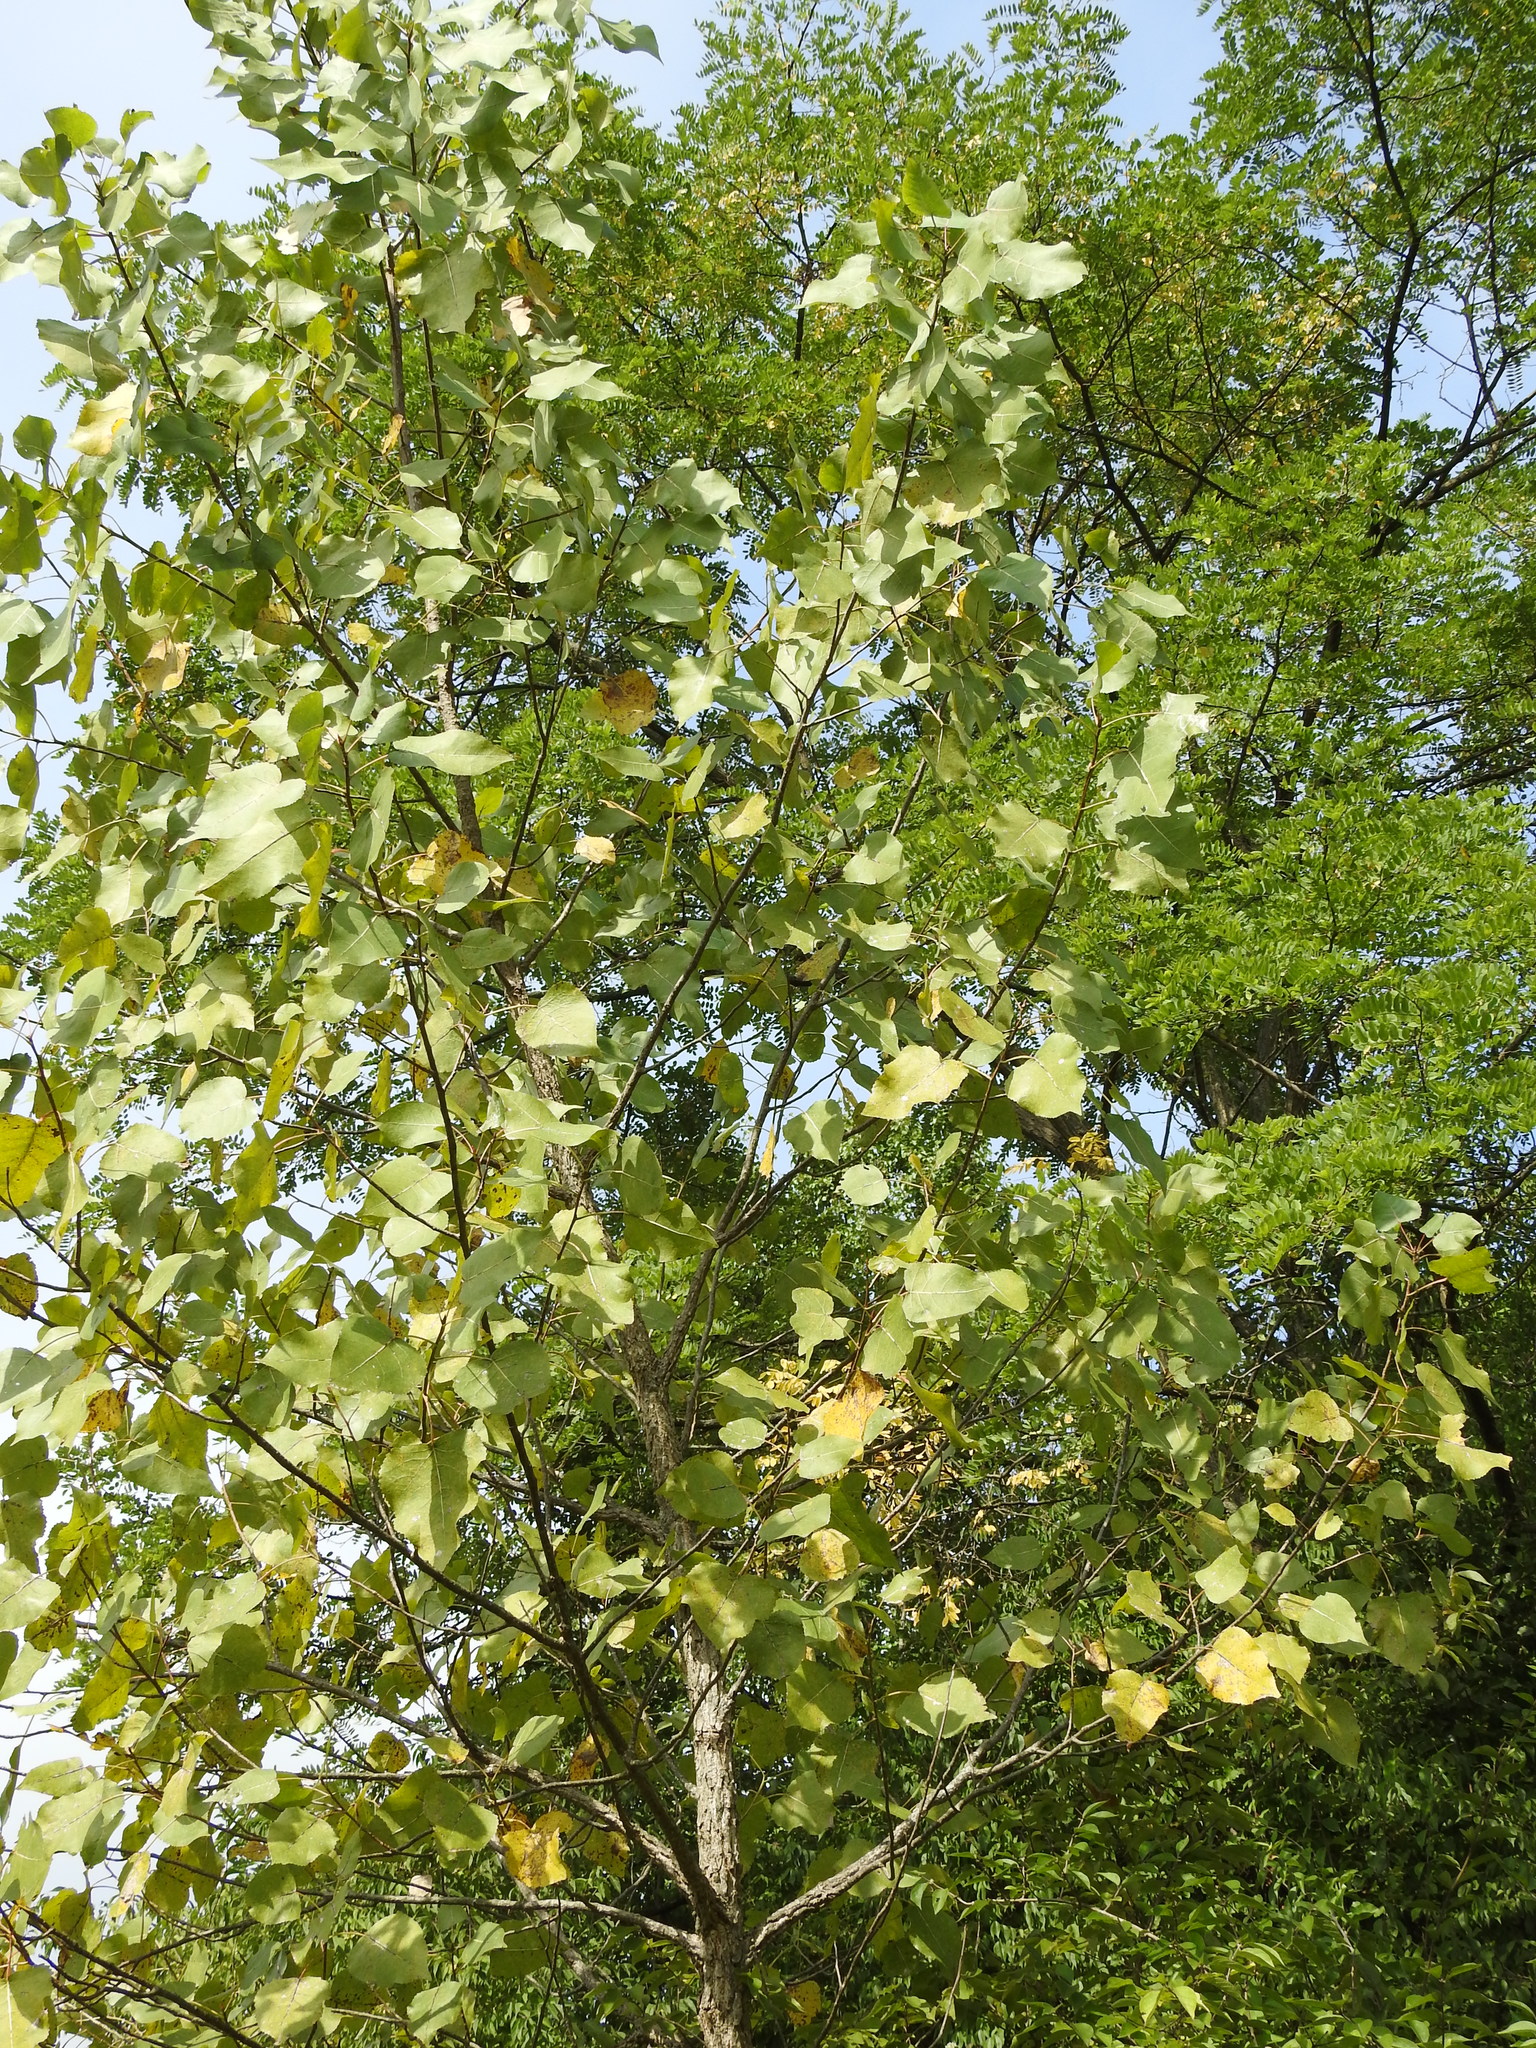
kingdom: Plantae
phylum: Tracheophyta
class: Magnoliopsida
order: Malpighiales
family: Salicaceae
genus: Populus
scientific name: Populus deltoides
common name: Eastern cottonwood
